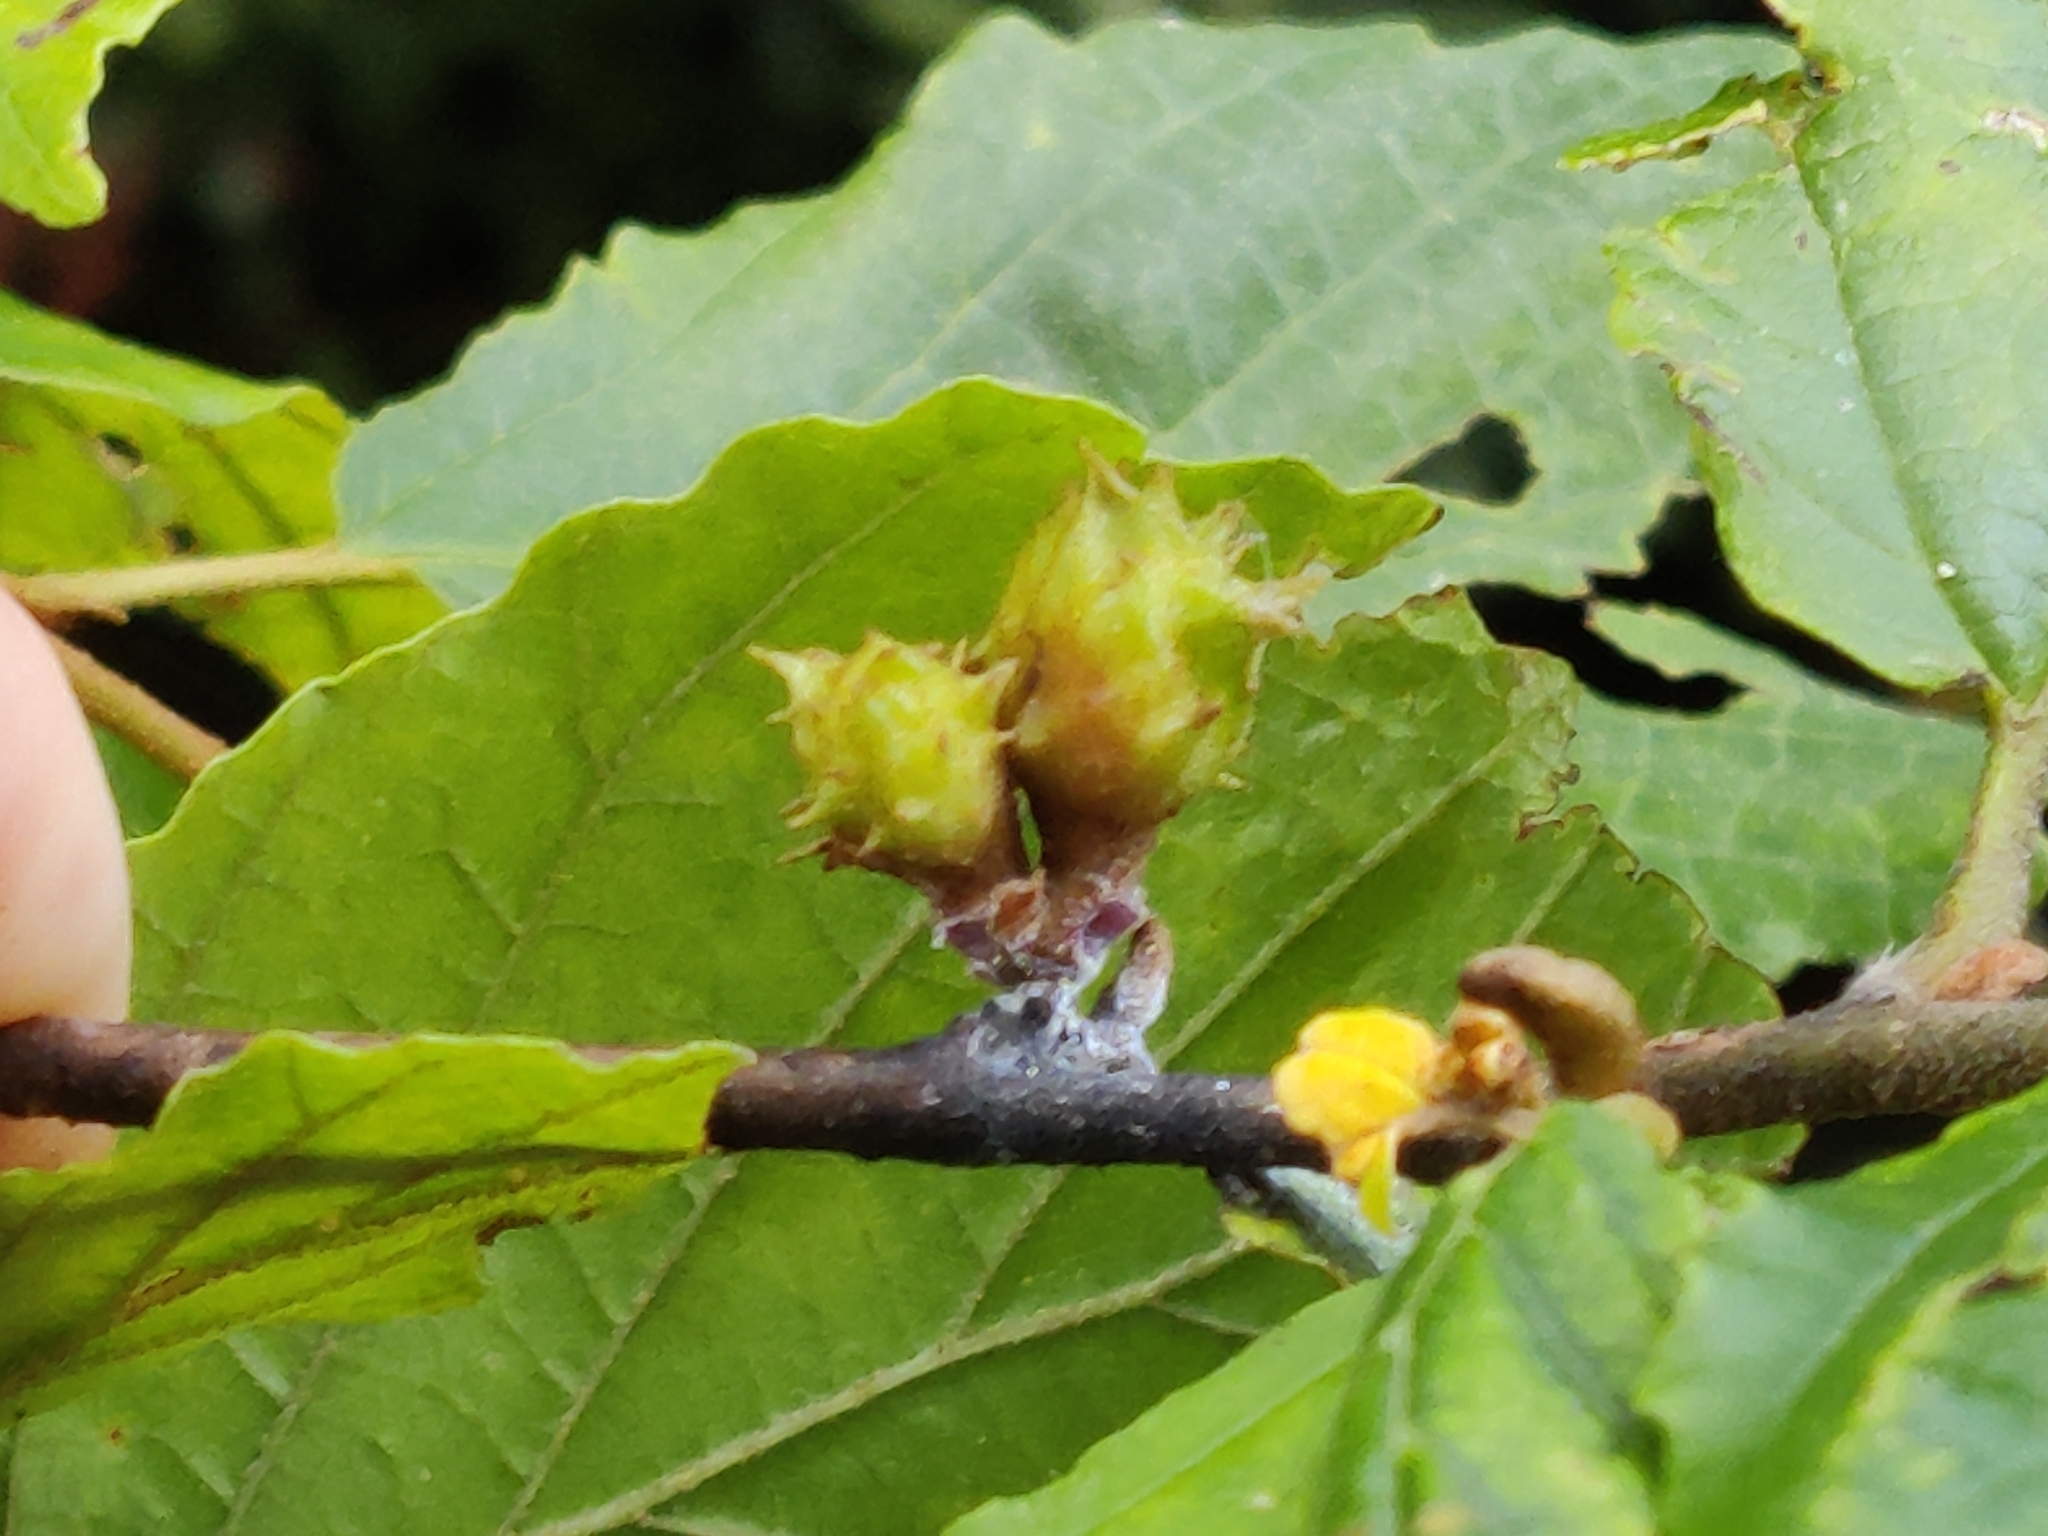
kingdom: Animalia
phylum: Arthropoda
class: Insecta
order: Hemiptera
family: Aphididae
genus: Hamamelistes
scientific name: Hamamelistes spinosus
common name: Witch hazel gall aphid
